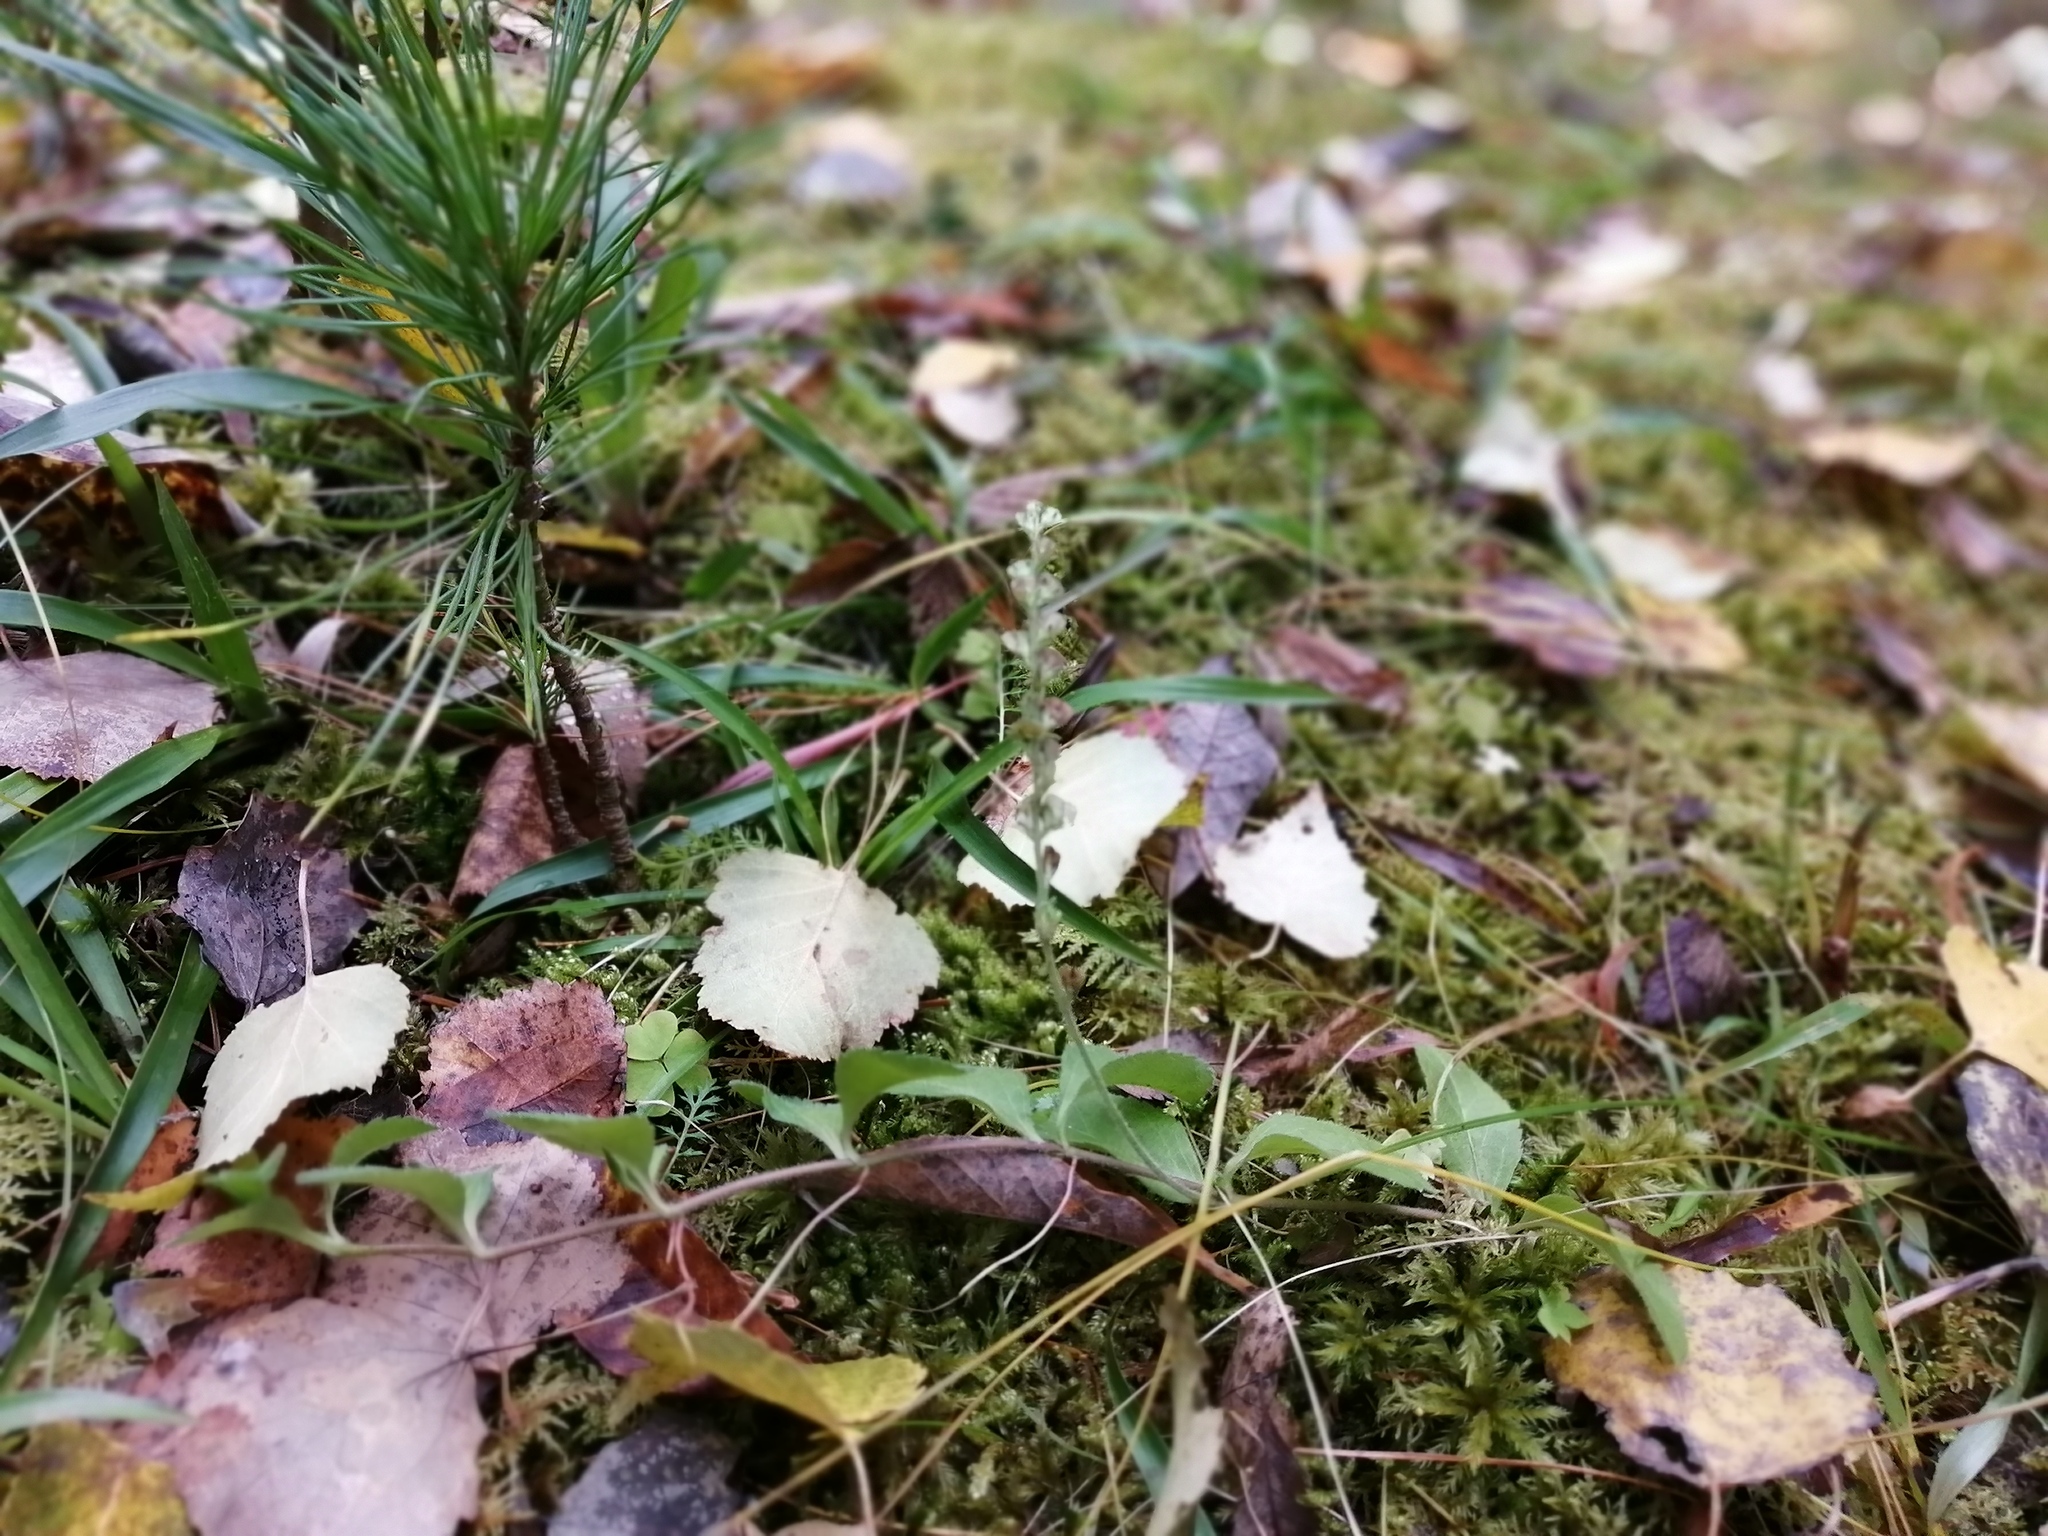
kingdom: Plantae
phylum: Tracheophyta
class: Magnoliopsida
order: Lamiales
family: Plantaginaceae
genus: Veronica
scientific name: Veronica officinalis
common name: Common speedwell
